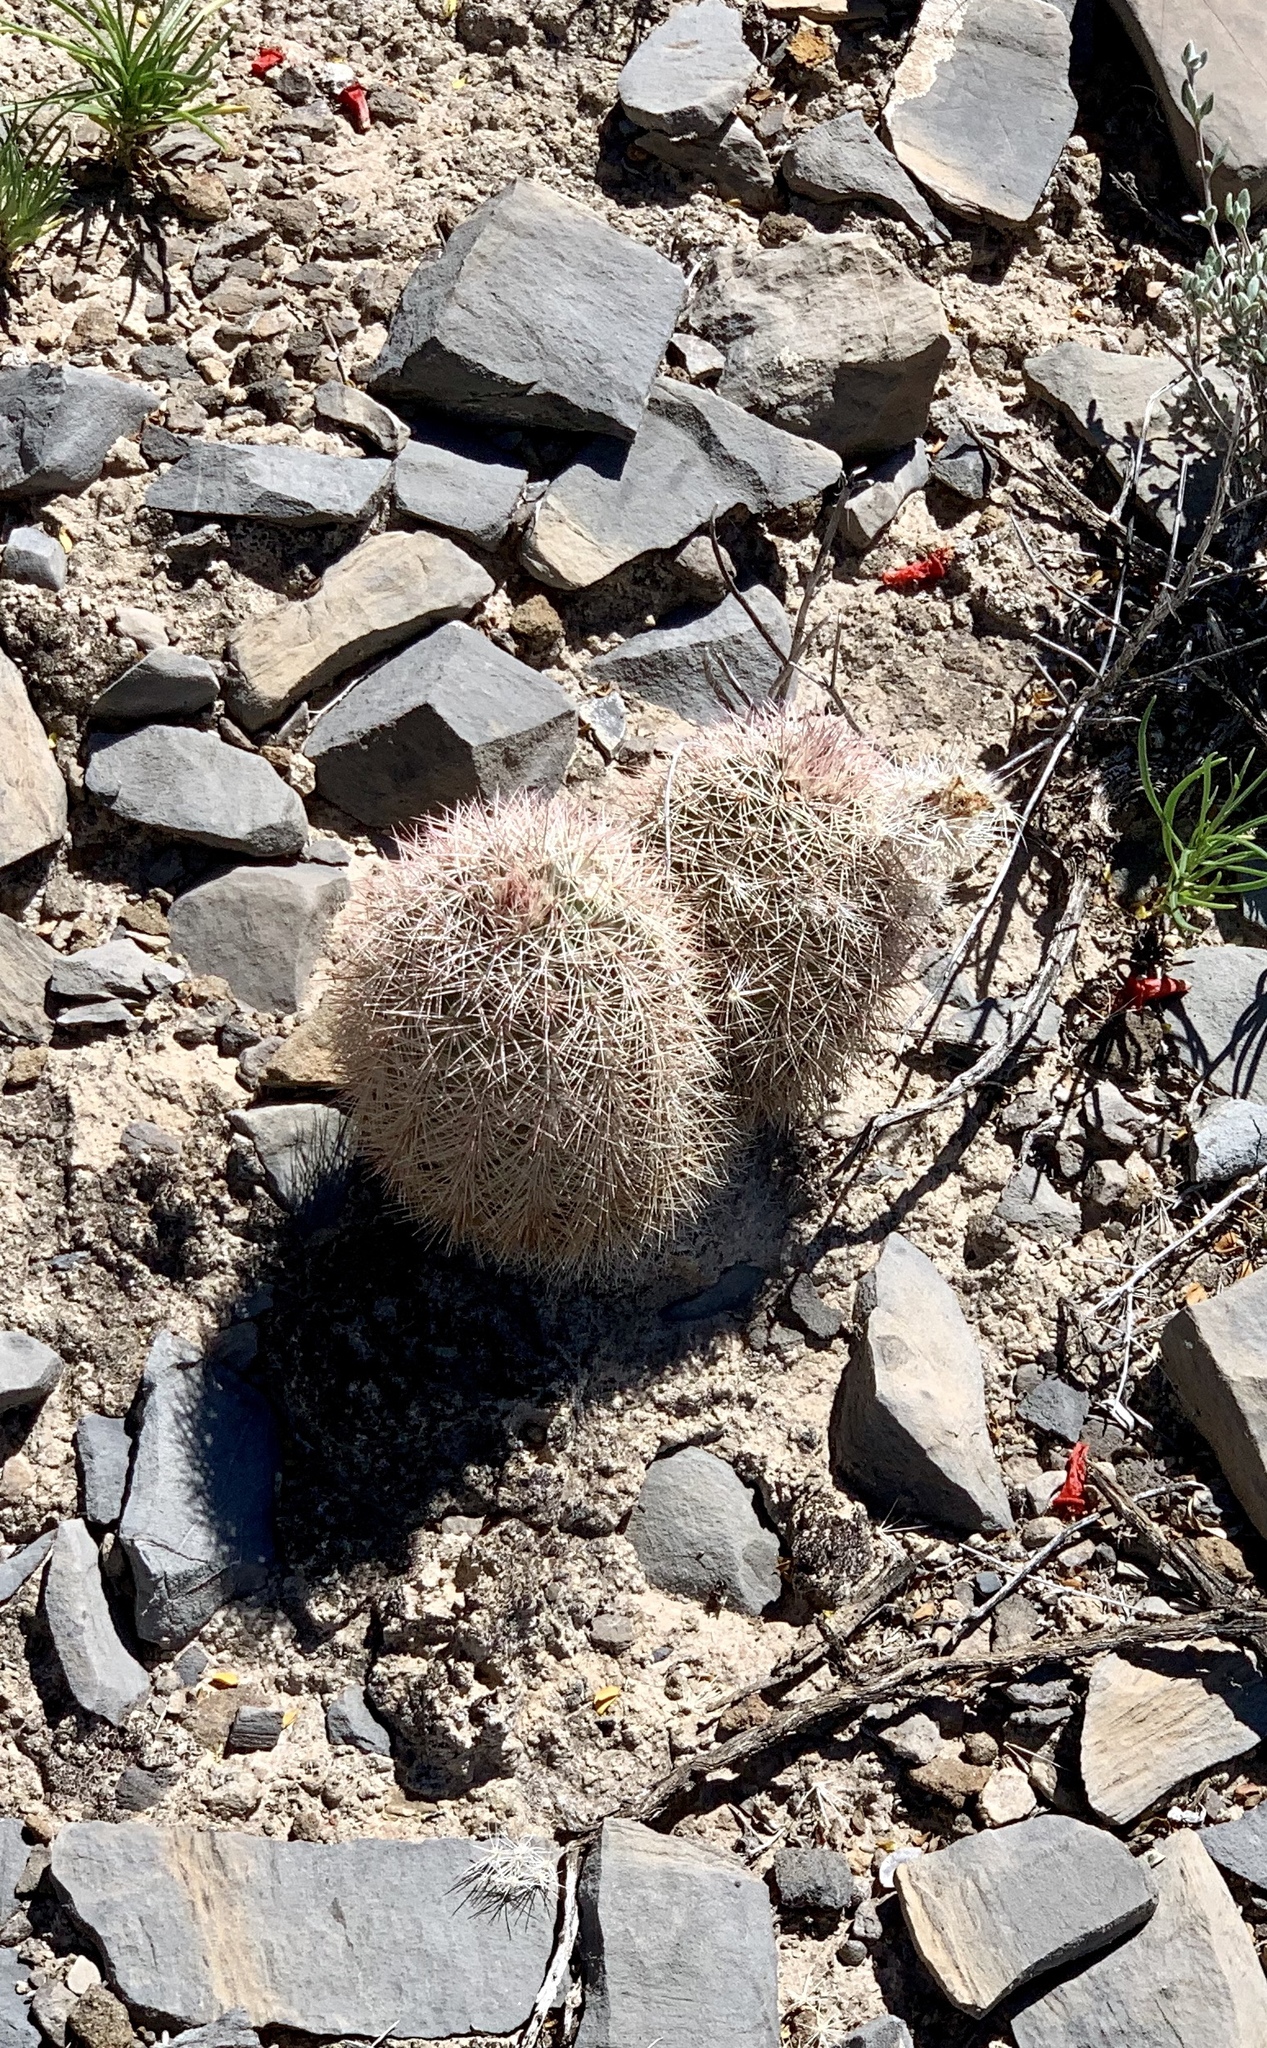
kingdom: Plantae
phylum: Tracheophyta
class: Magnoliopsida
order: Caryophyllales
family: Cactaceae
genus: Echinocereus
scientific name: Echinocereus dasyacanthus
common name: Spiny hedgehog cactus
